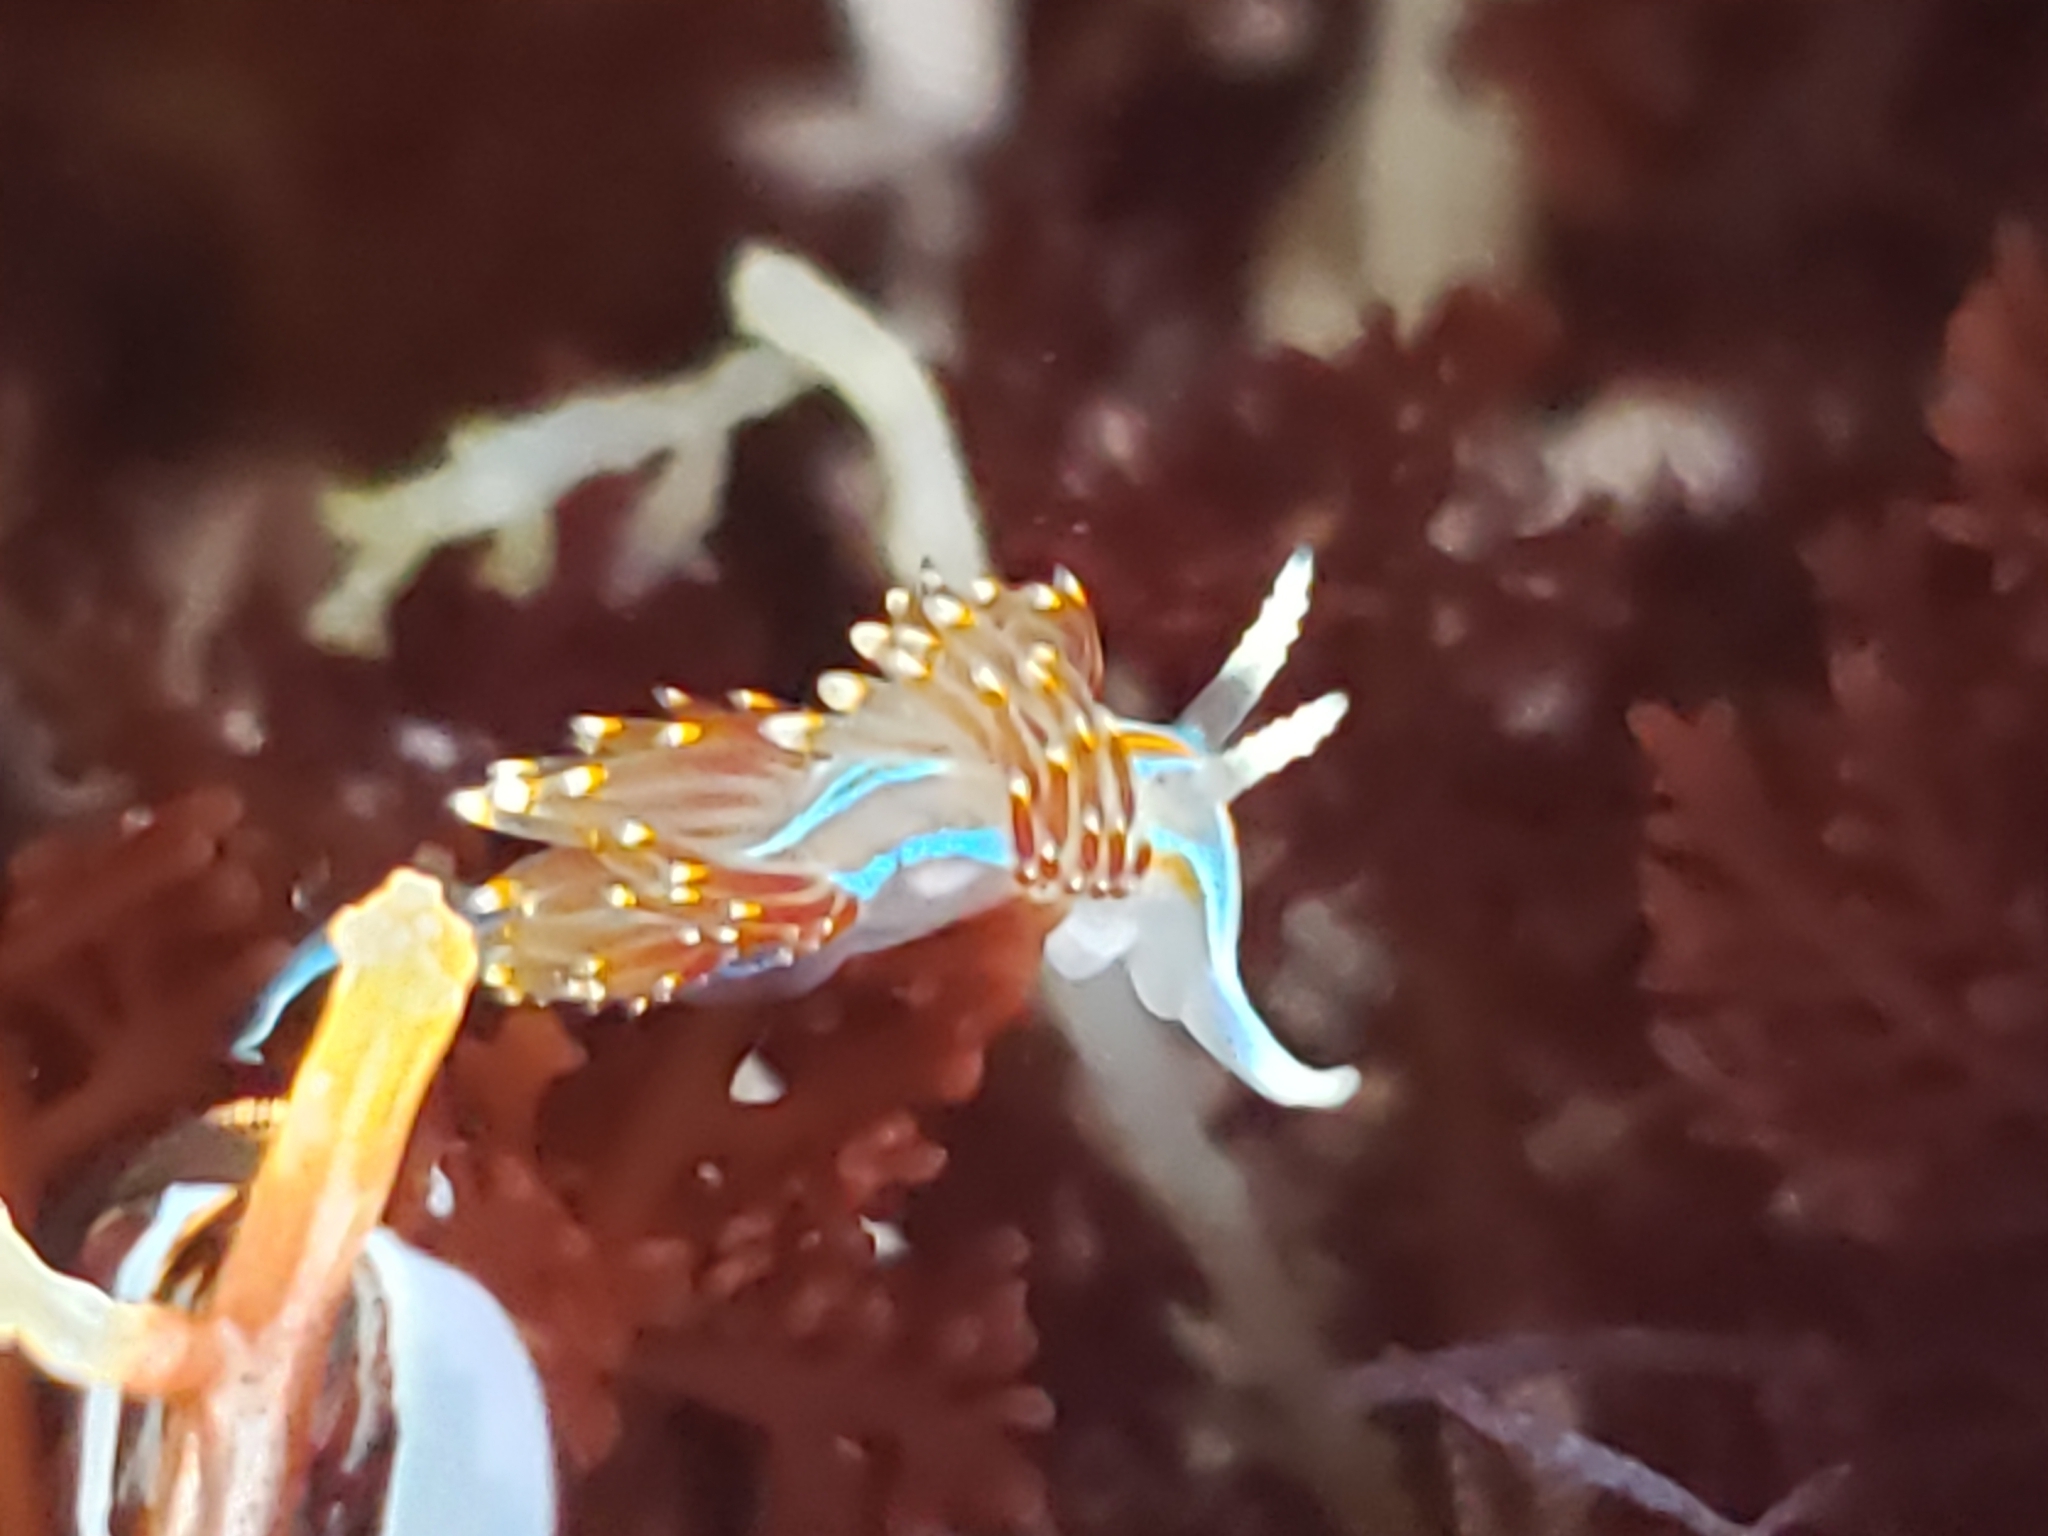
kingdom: Animalia
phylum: Mollusca
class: Gastropoda
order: Nudibranchia
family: Myrrhinidae
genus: Hermissenda
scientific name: Hermissenda opalescens
